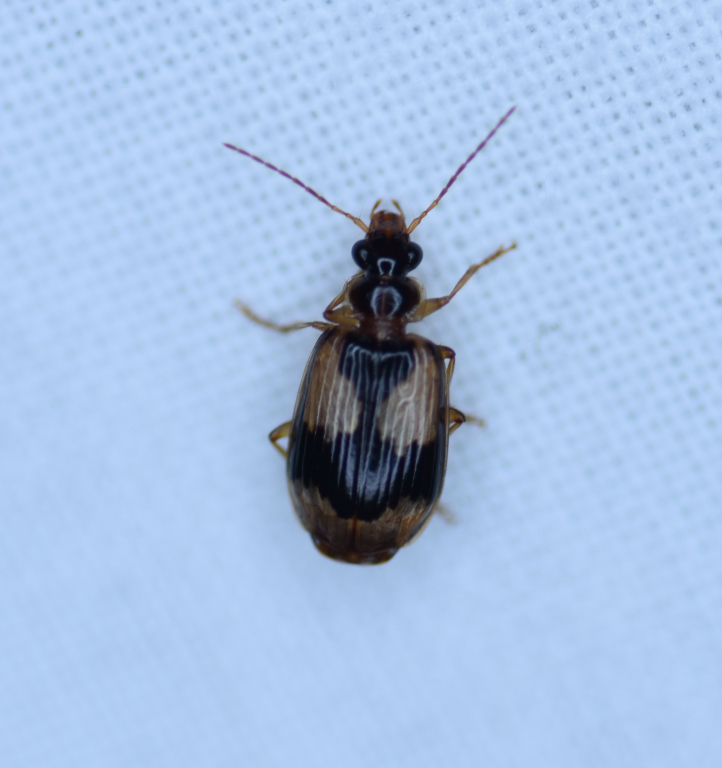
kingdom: Animalia
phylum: Arthropoda
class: Insecta
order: Coleoptera
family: Carabidae
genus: Lebia
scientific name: Lebia fuscata
